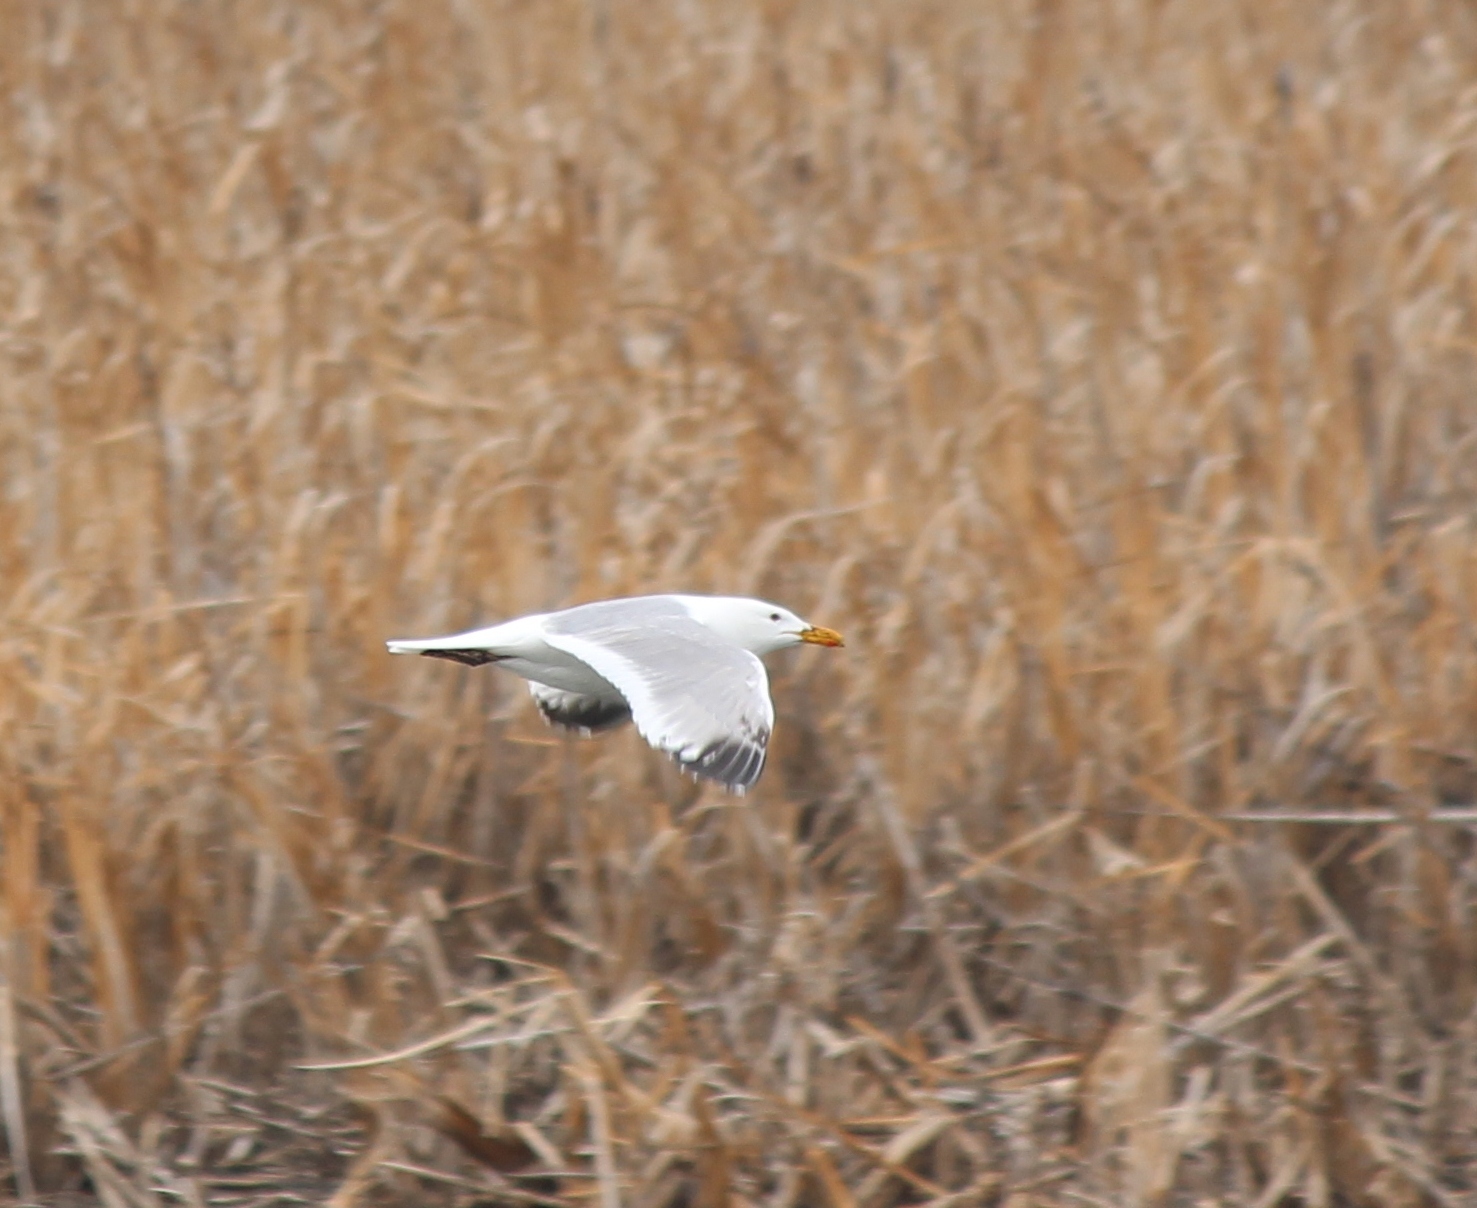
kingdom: Animalia
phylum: Chordata
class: Aves
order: Charadriiformes
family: Laridae
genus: Larus
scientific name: Larus vegae
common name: Vega gull
